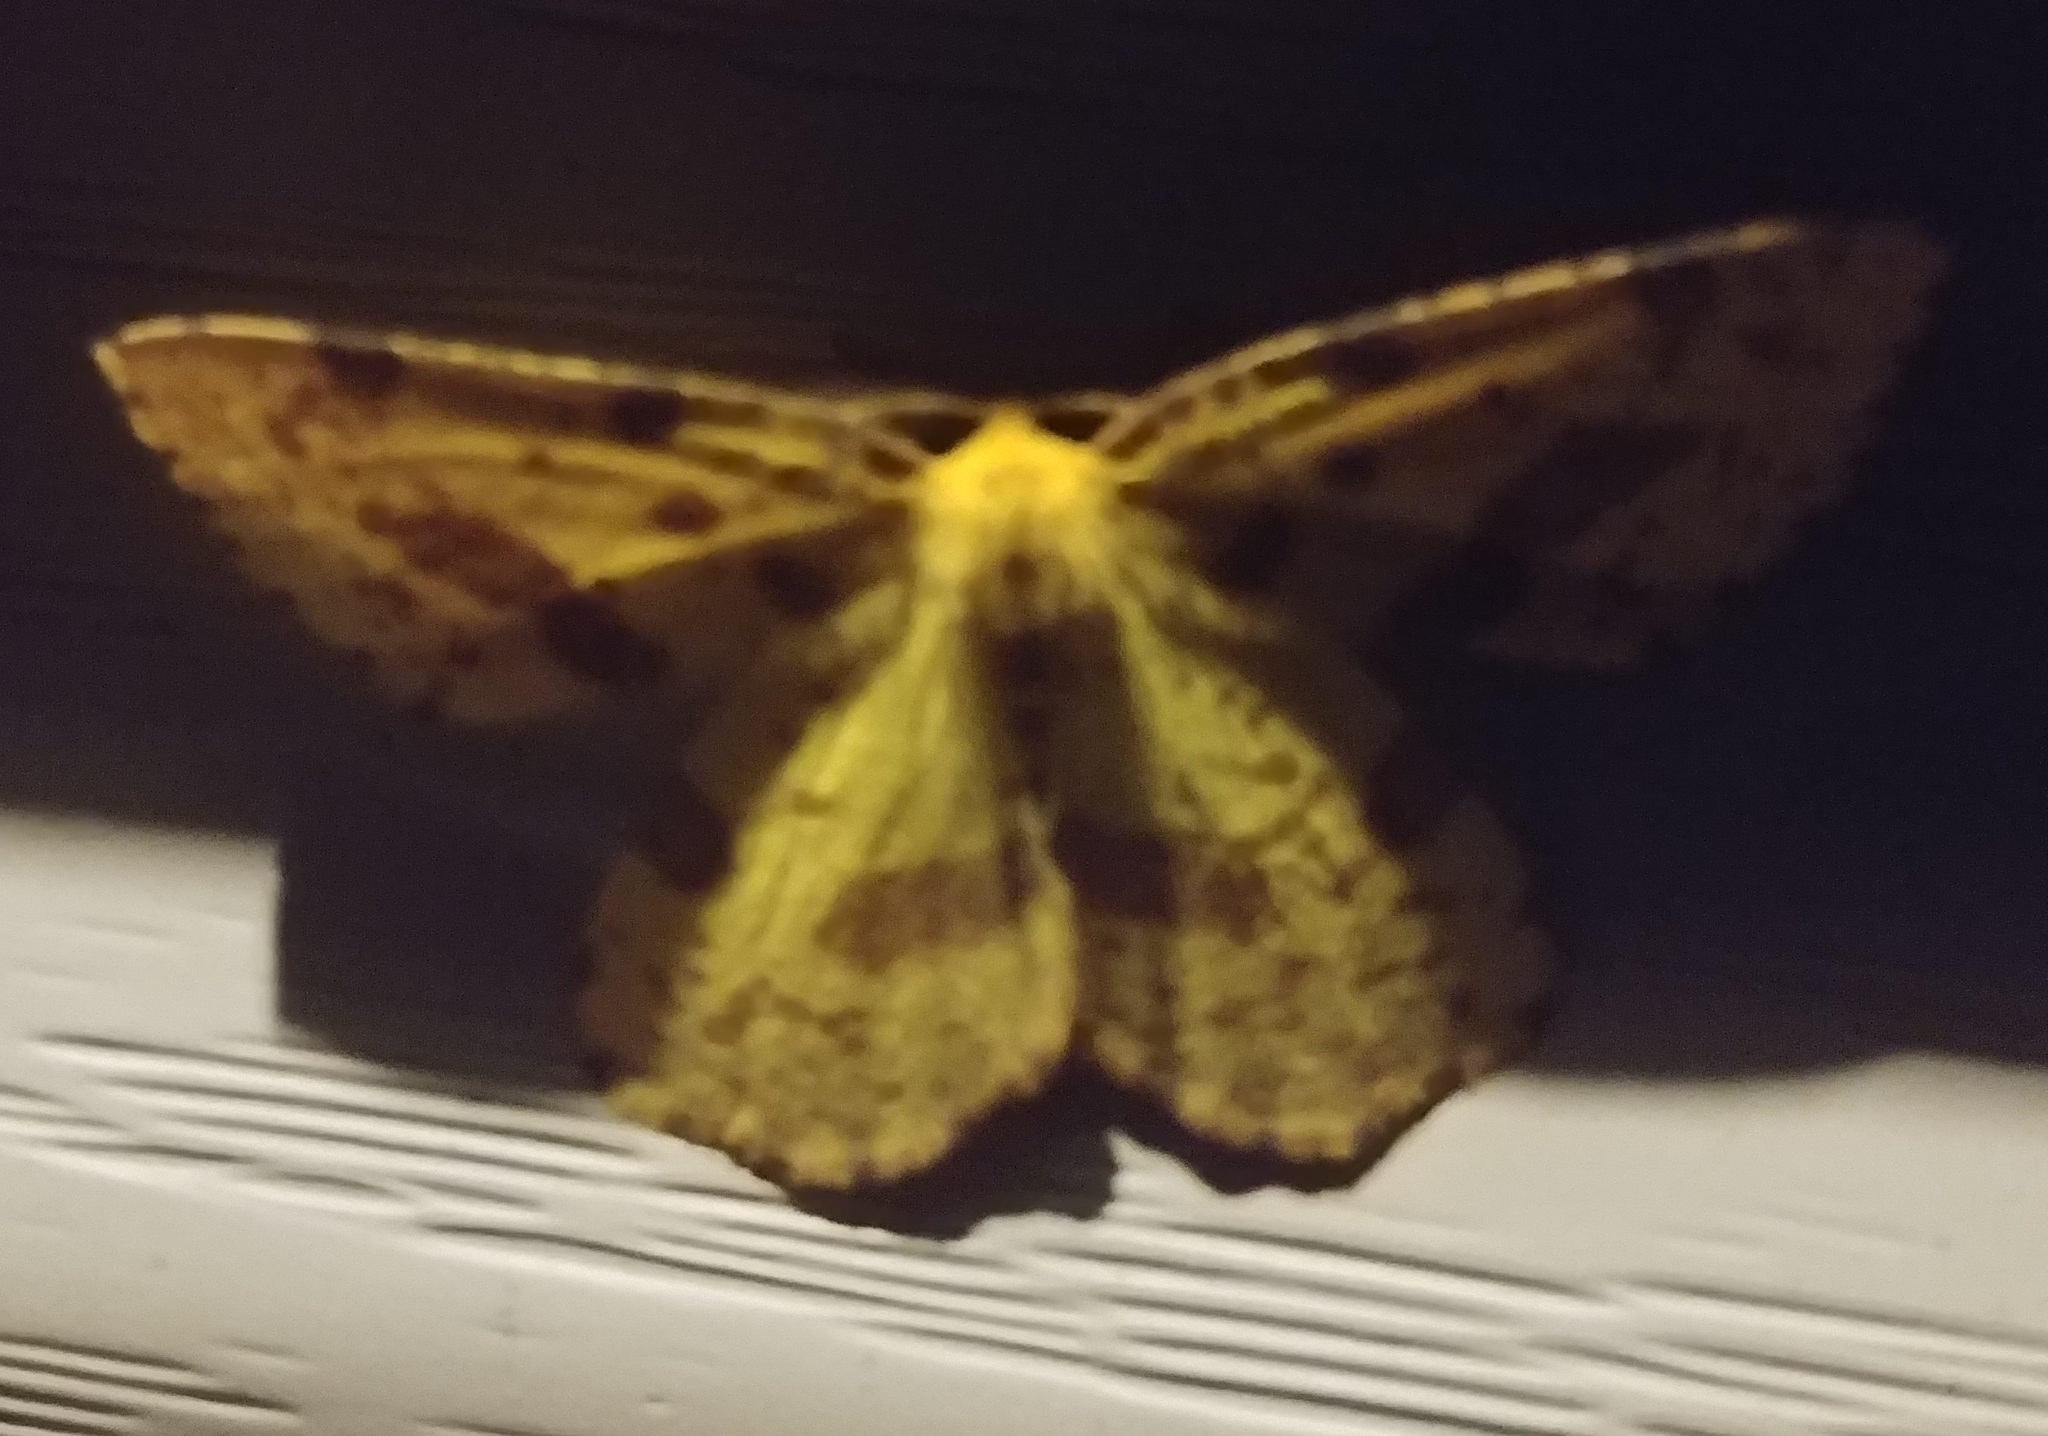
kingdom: Animalia
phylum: Arthropoda
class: Insecta
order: Lepidoptera
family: Geometridae
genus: Xanthotype
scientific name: Xanthotype
